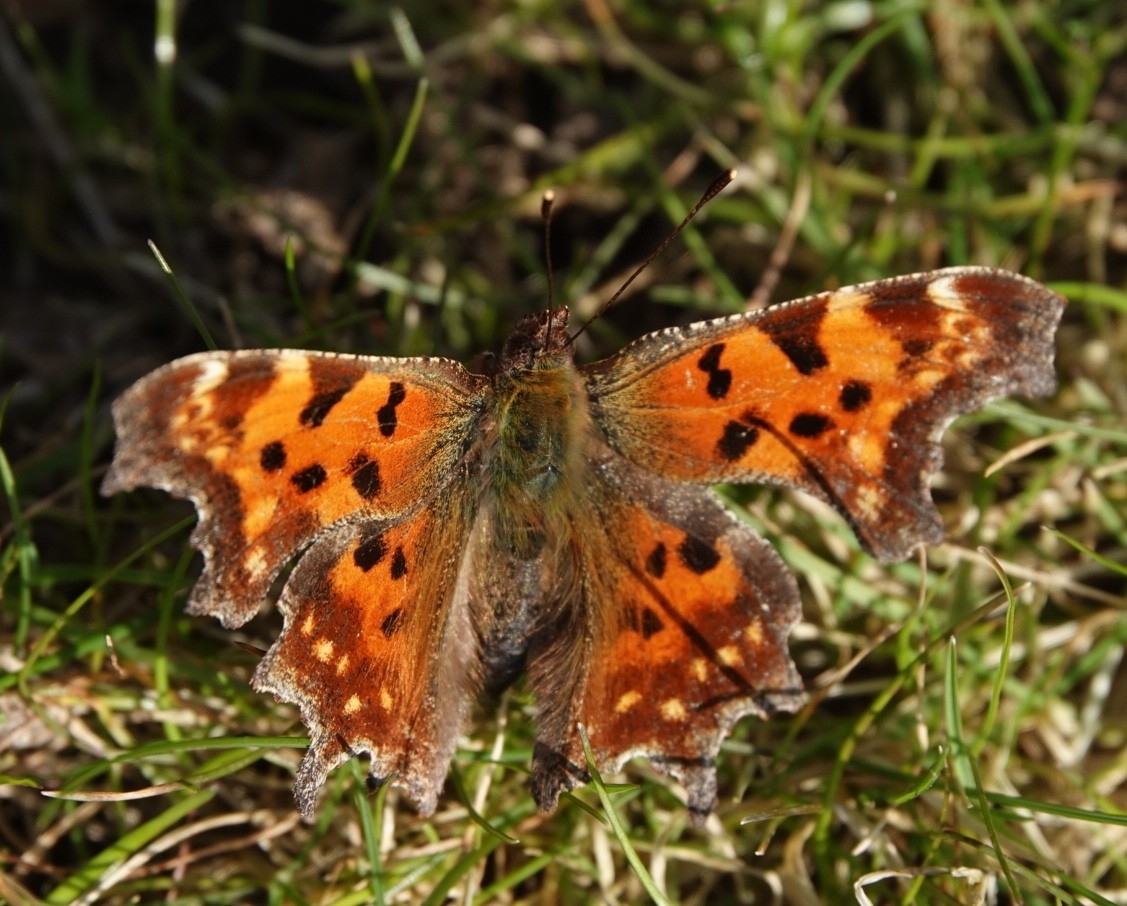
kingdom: Animalia
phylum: Arthropoda
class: Insecta
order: Lepidoptera
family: Nymphalidae
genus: Polygonia
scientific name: Polygonia c-album
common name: Comma
